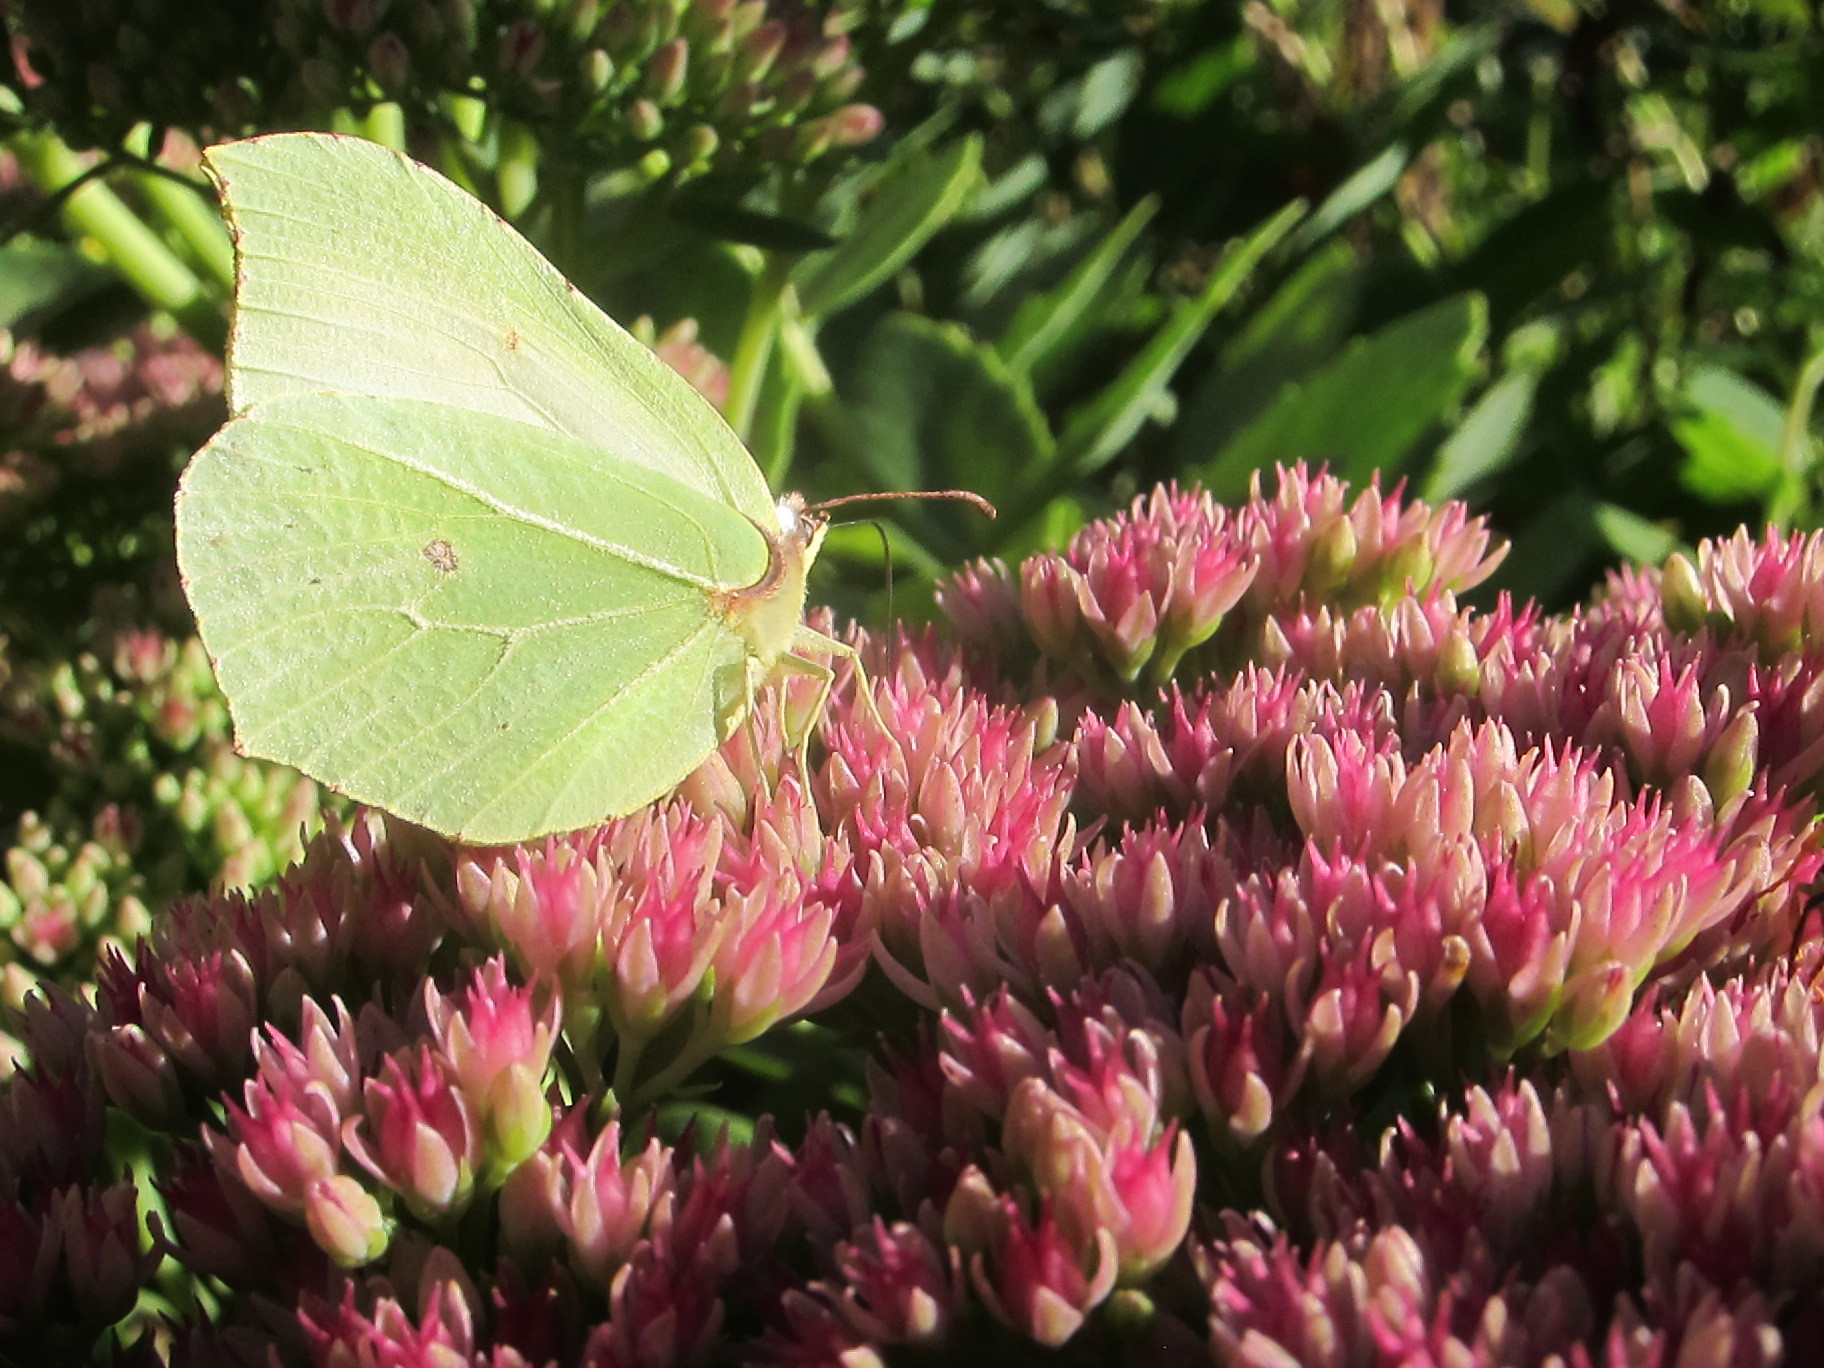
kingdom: Animalia
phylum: Arthropoda
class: Insecta
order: Lepidoptera
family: Pieridae
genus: Gonepteryx
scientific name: Gonepteryx rhamni
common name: Brimstone
